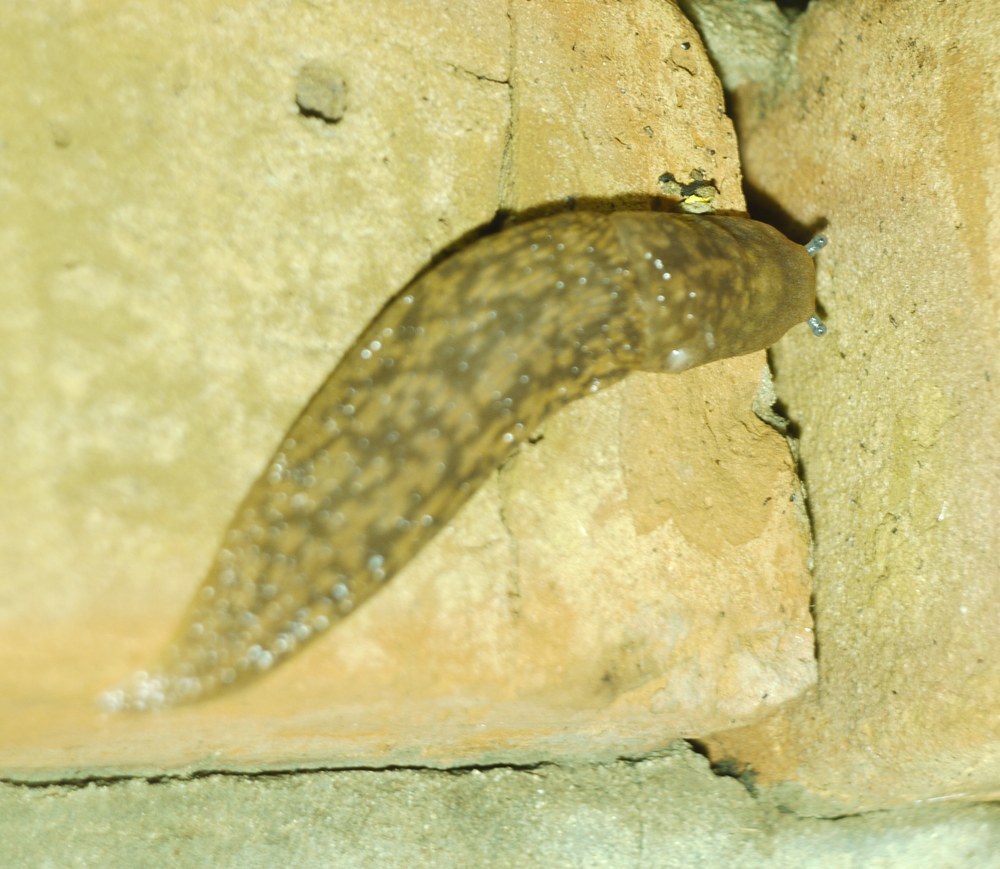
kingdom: Animalia
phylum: Mollusca
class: Gastropoda
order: Stylommatophora
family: Limacidae
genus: Limacus
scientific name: Limacus
